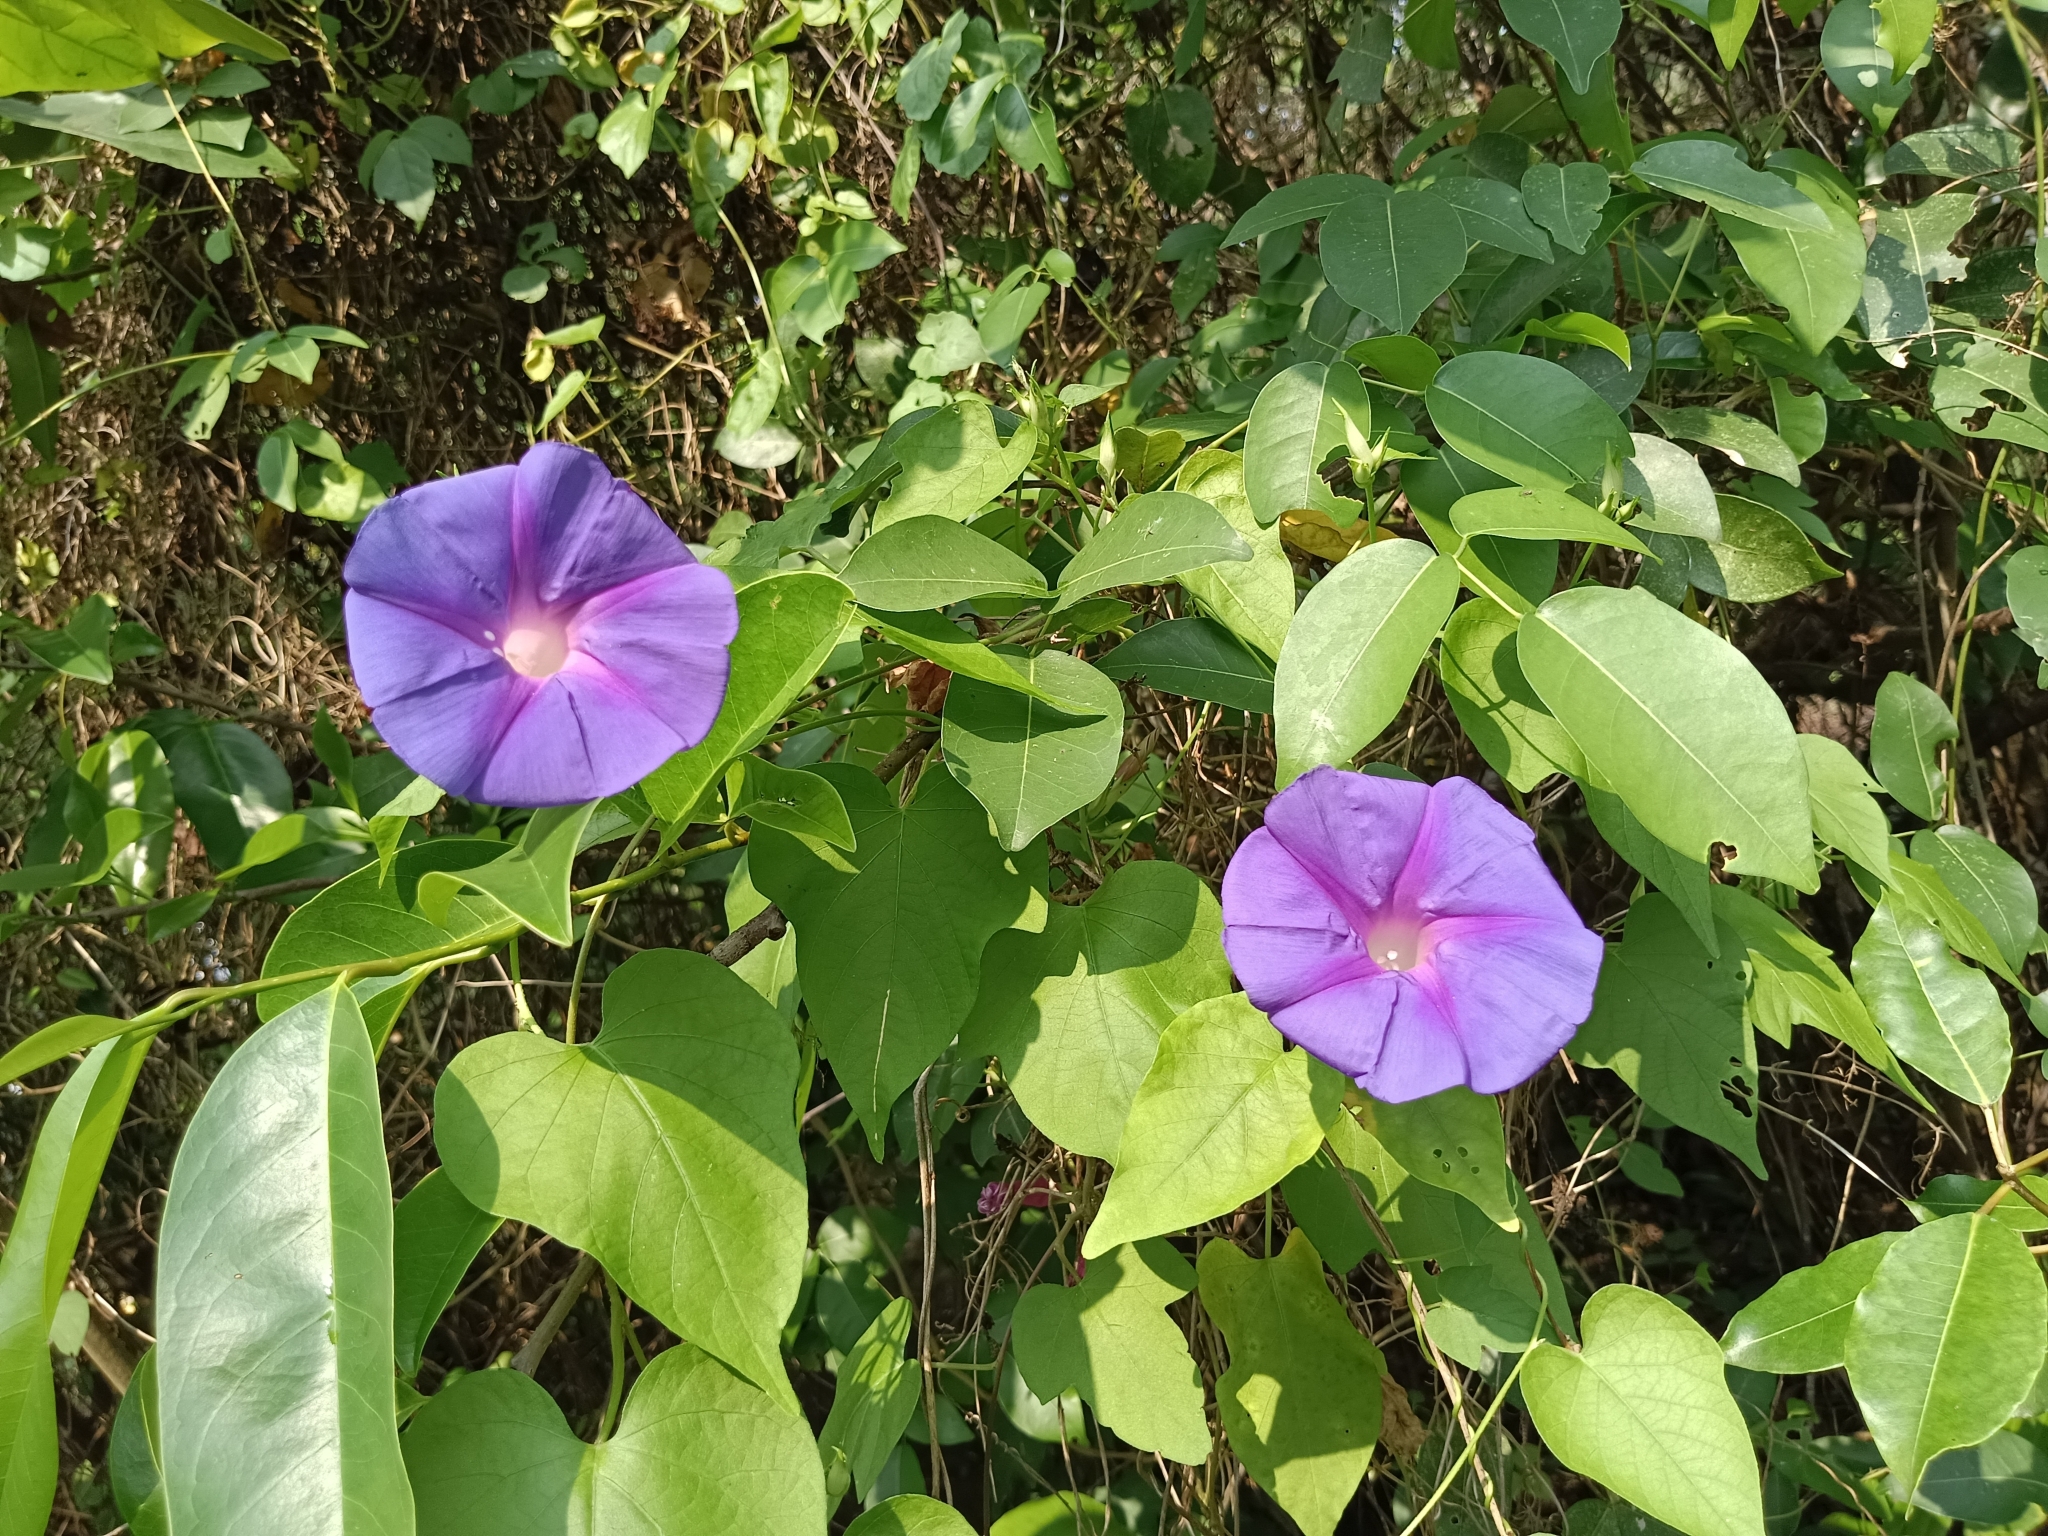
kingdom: Plantae
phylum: Tracheophyta
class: Magnoliopsida
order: Solanales
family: Convolvulaceae
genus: Ipomoea
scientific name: Ipomoea indica
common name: Blue dawnflower
